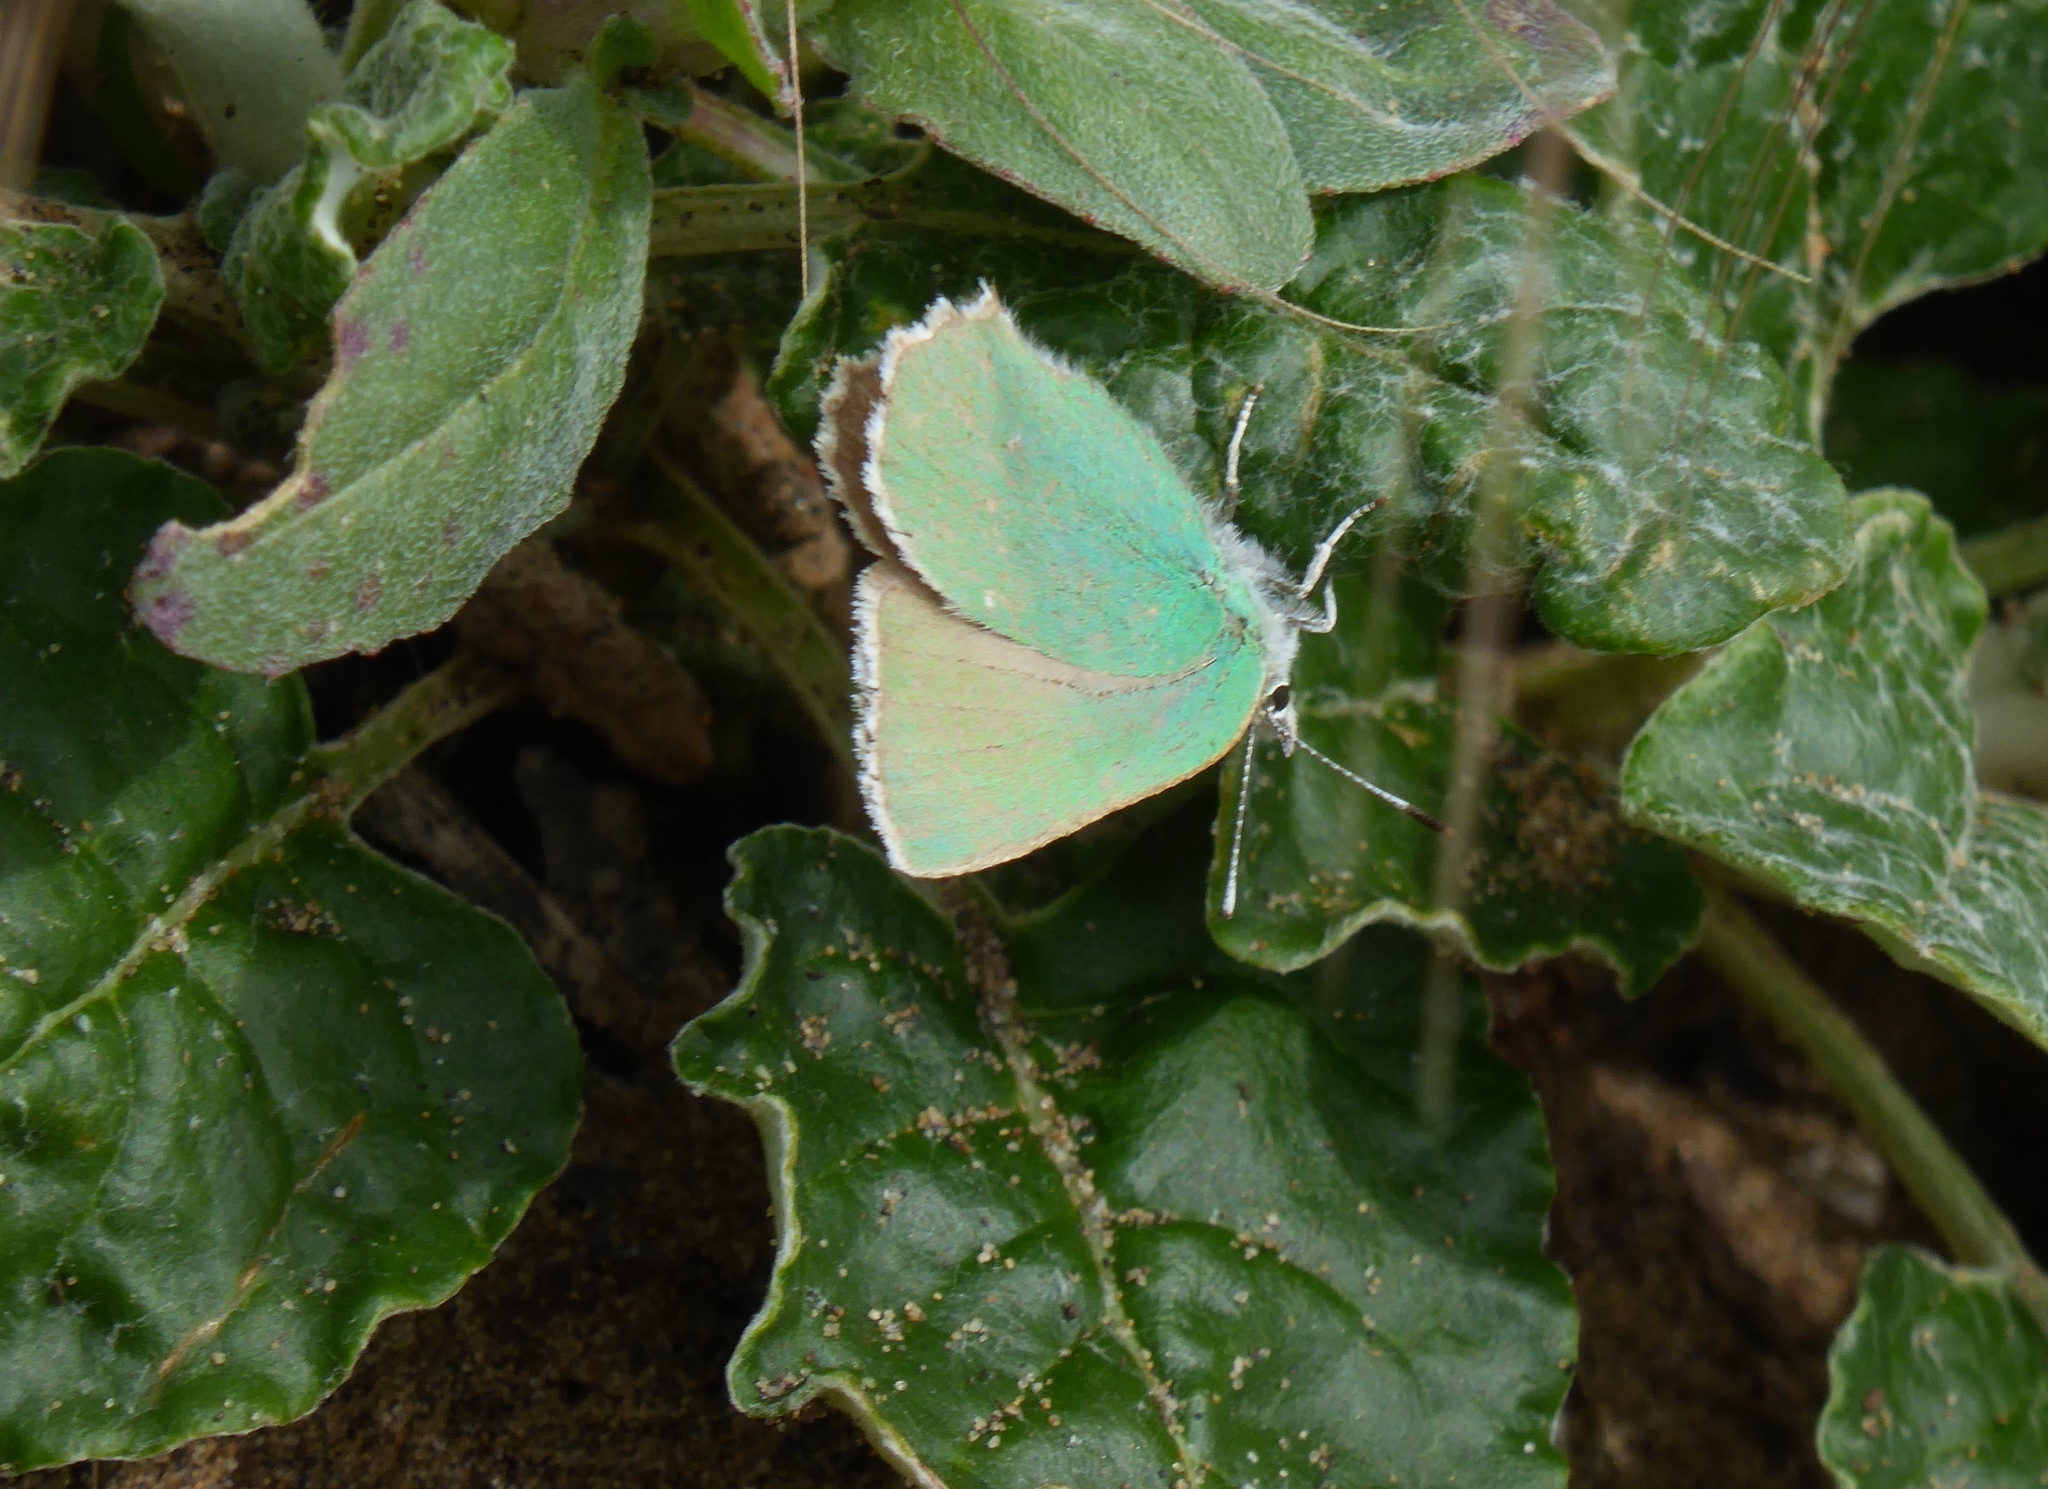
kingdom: Animalia
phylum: Arthropoda
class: Insecta
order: Lepidoptera
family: Lycaenidae
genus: Callophrys
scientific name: Callophrys viridis
